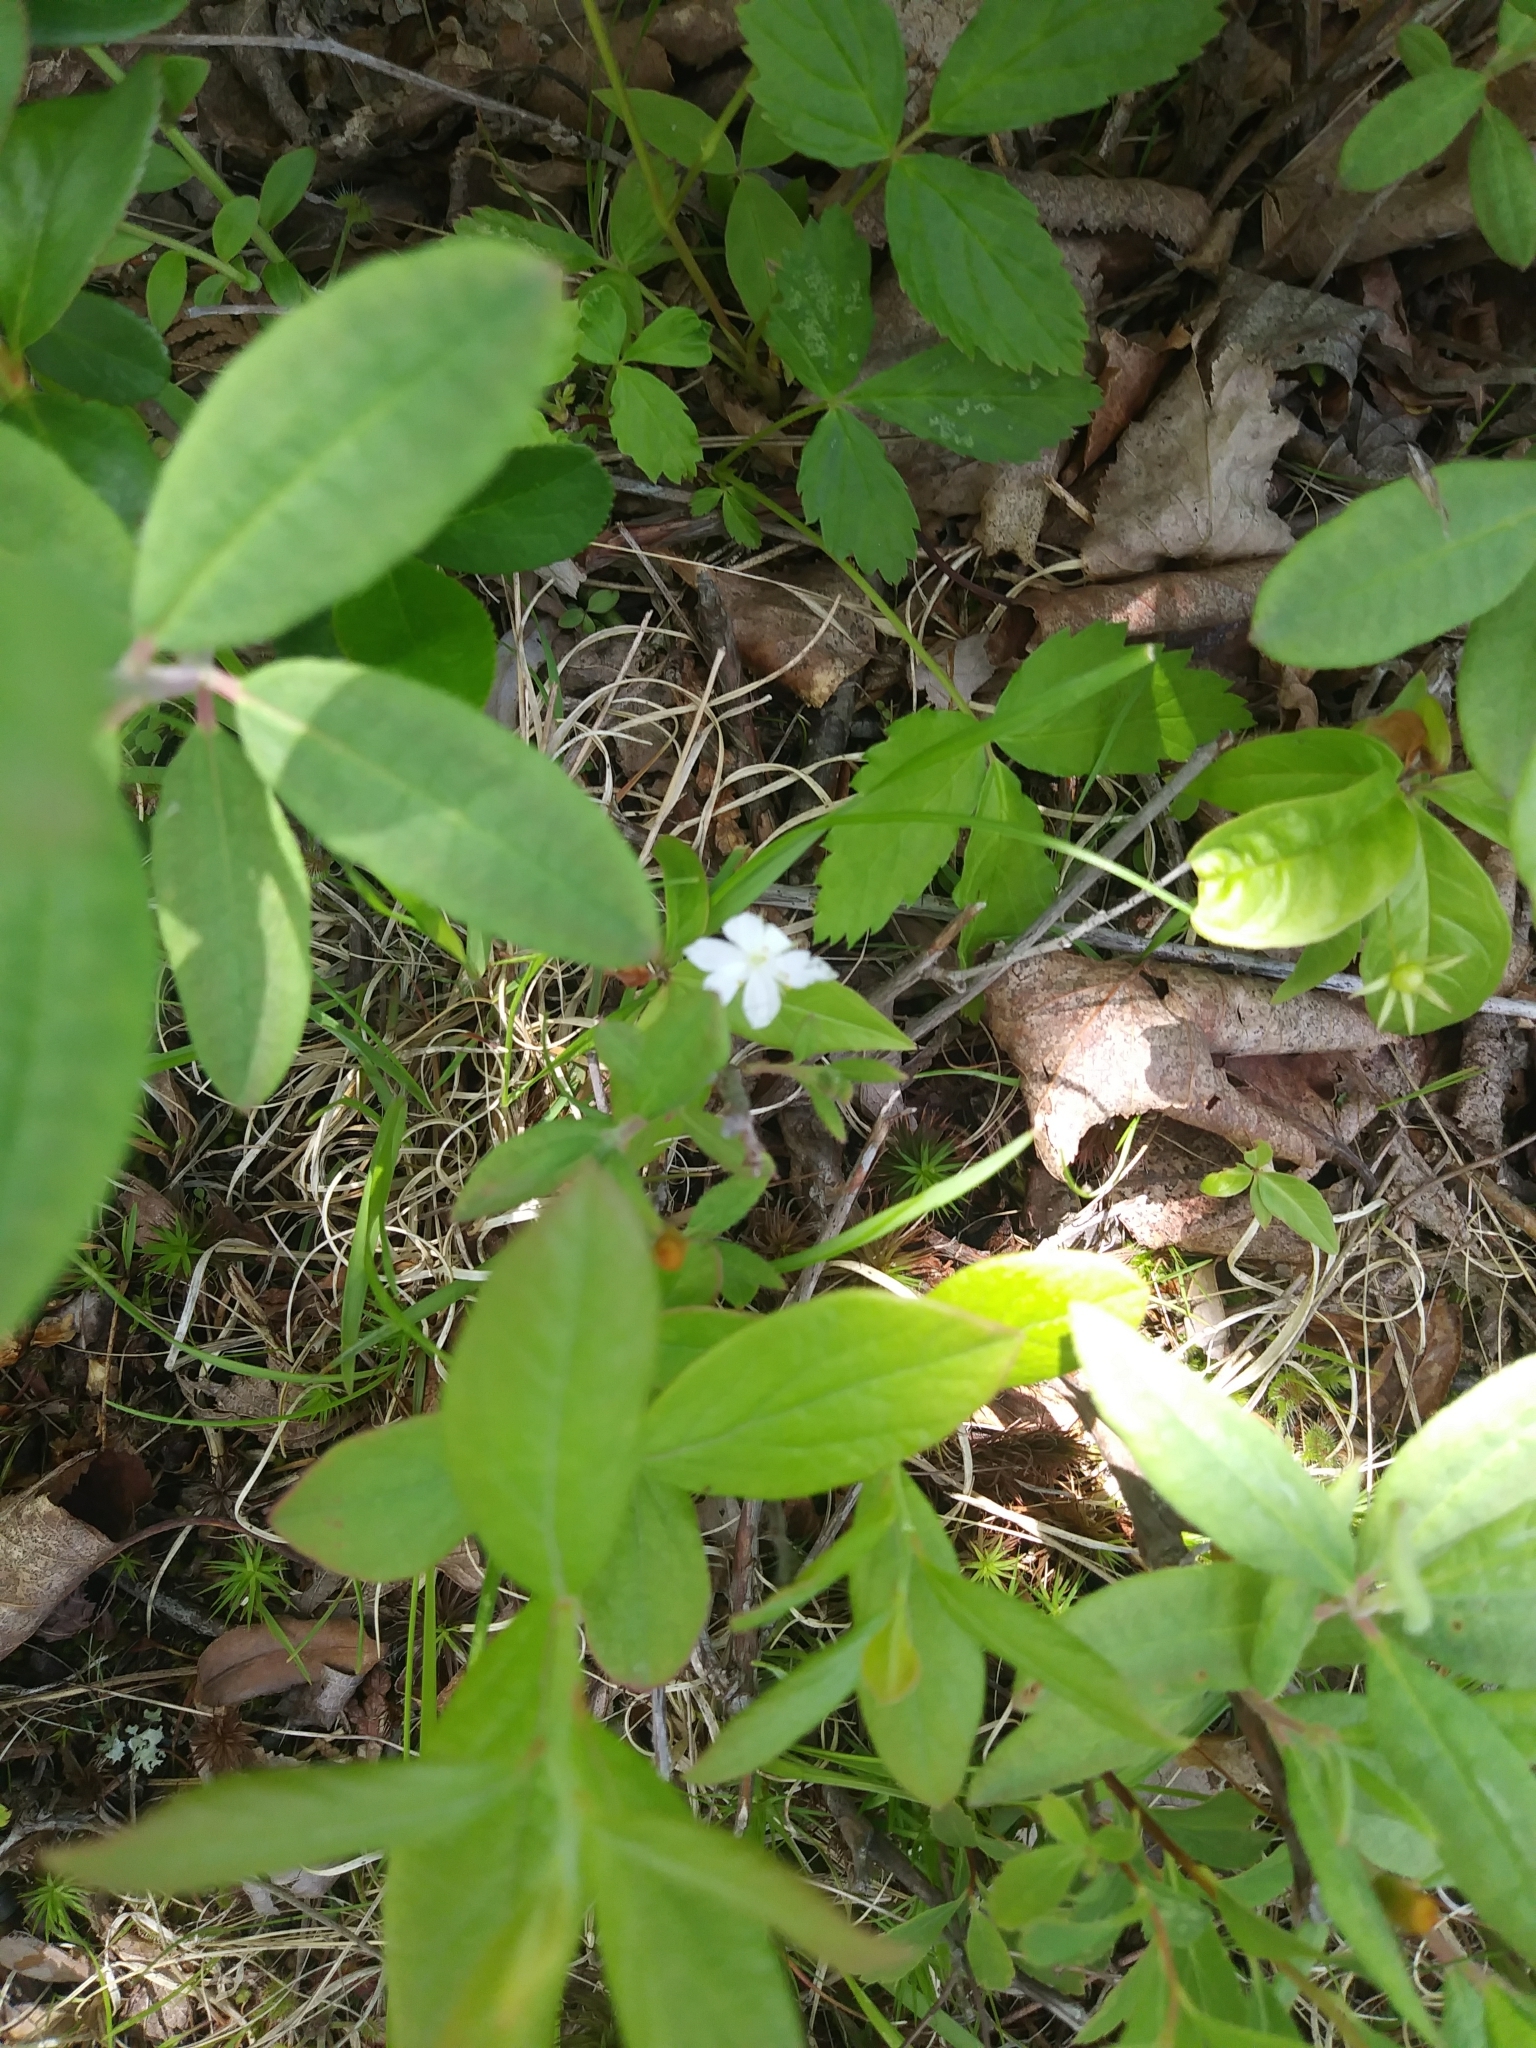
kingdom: Plantae
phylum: Tracheophyta
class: Magnoliopsida
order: Ericales
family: Primulaceae
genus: Lysimachia
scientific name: Lysimachia borealis
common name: American starflower
